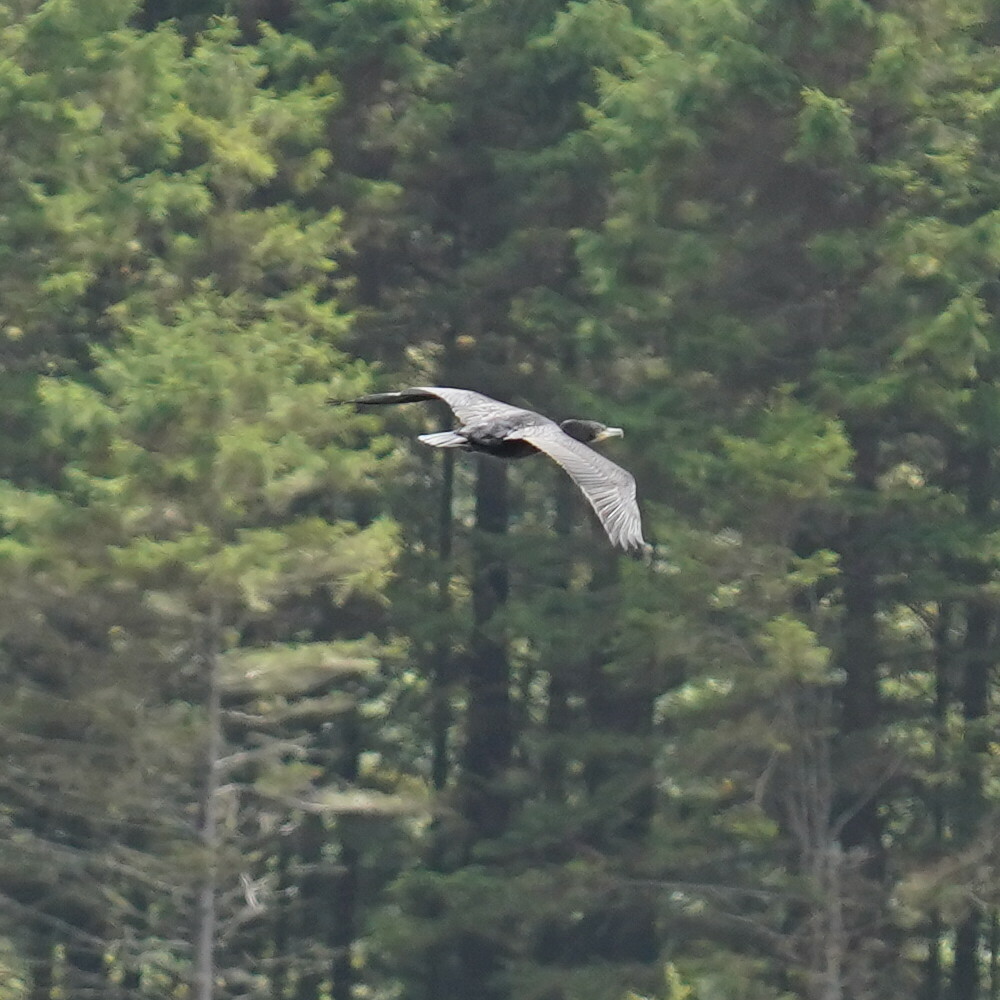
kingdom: Animalia
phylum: Chordata
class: Aves
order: Suliformes
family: Phalacrocoracidae
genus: Phalacrocorax
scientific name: Phalacrocorax carbo
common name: Great cormorant
